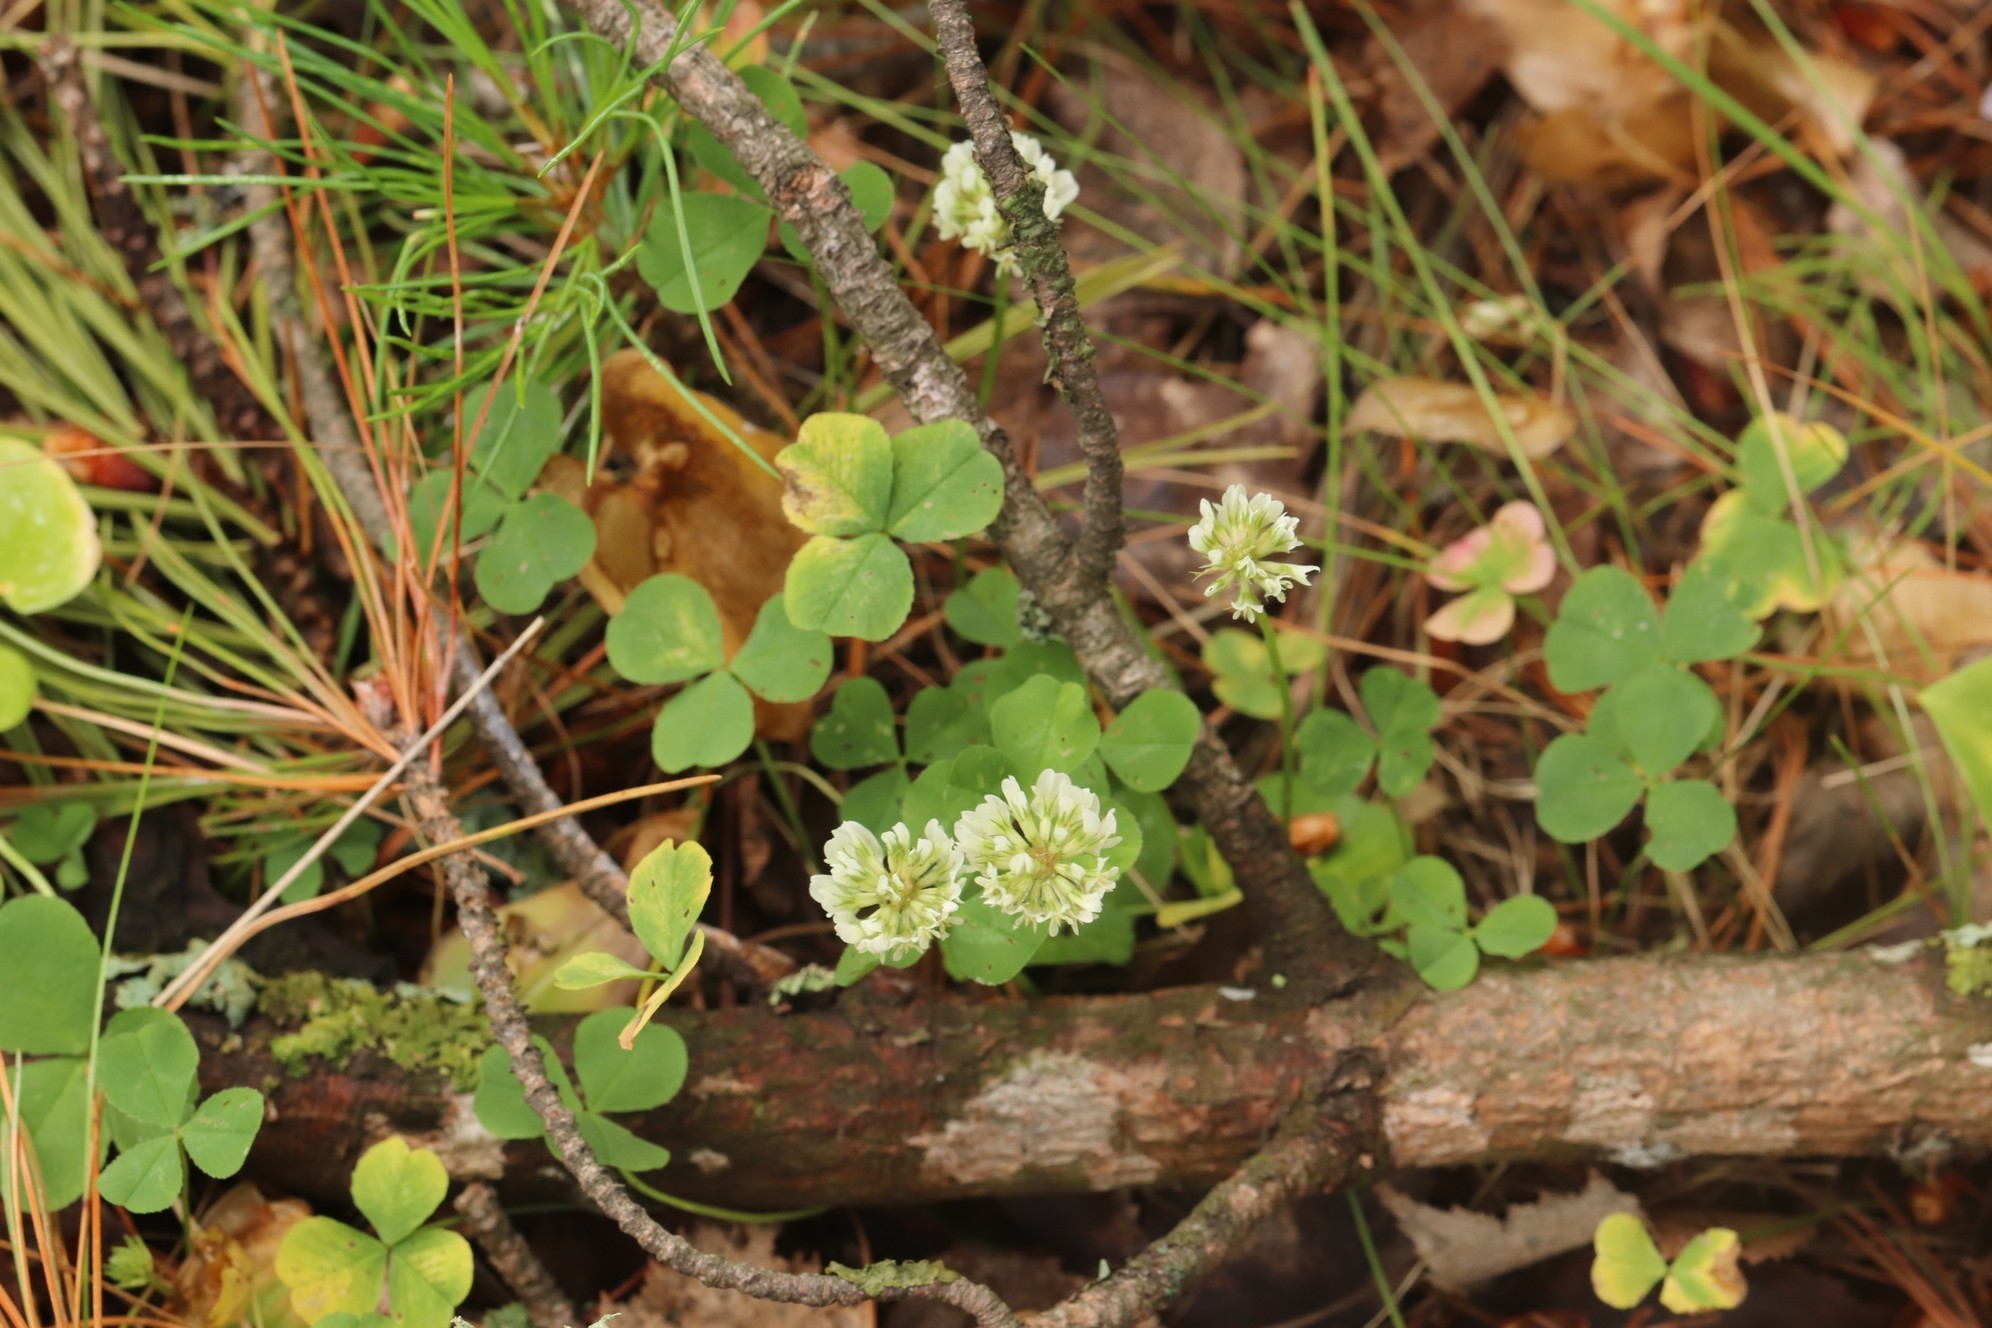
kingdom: Plantae
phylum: Tracheophyta
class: Magnoliopsida
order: Fabales
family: Fabaceae
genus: Trifolium
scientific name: Trifolium repens
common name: White clover
